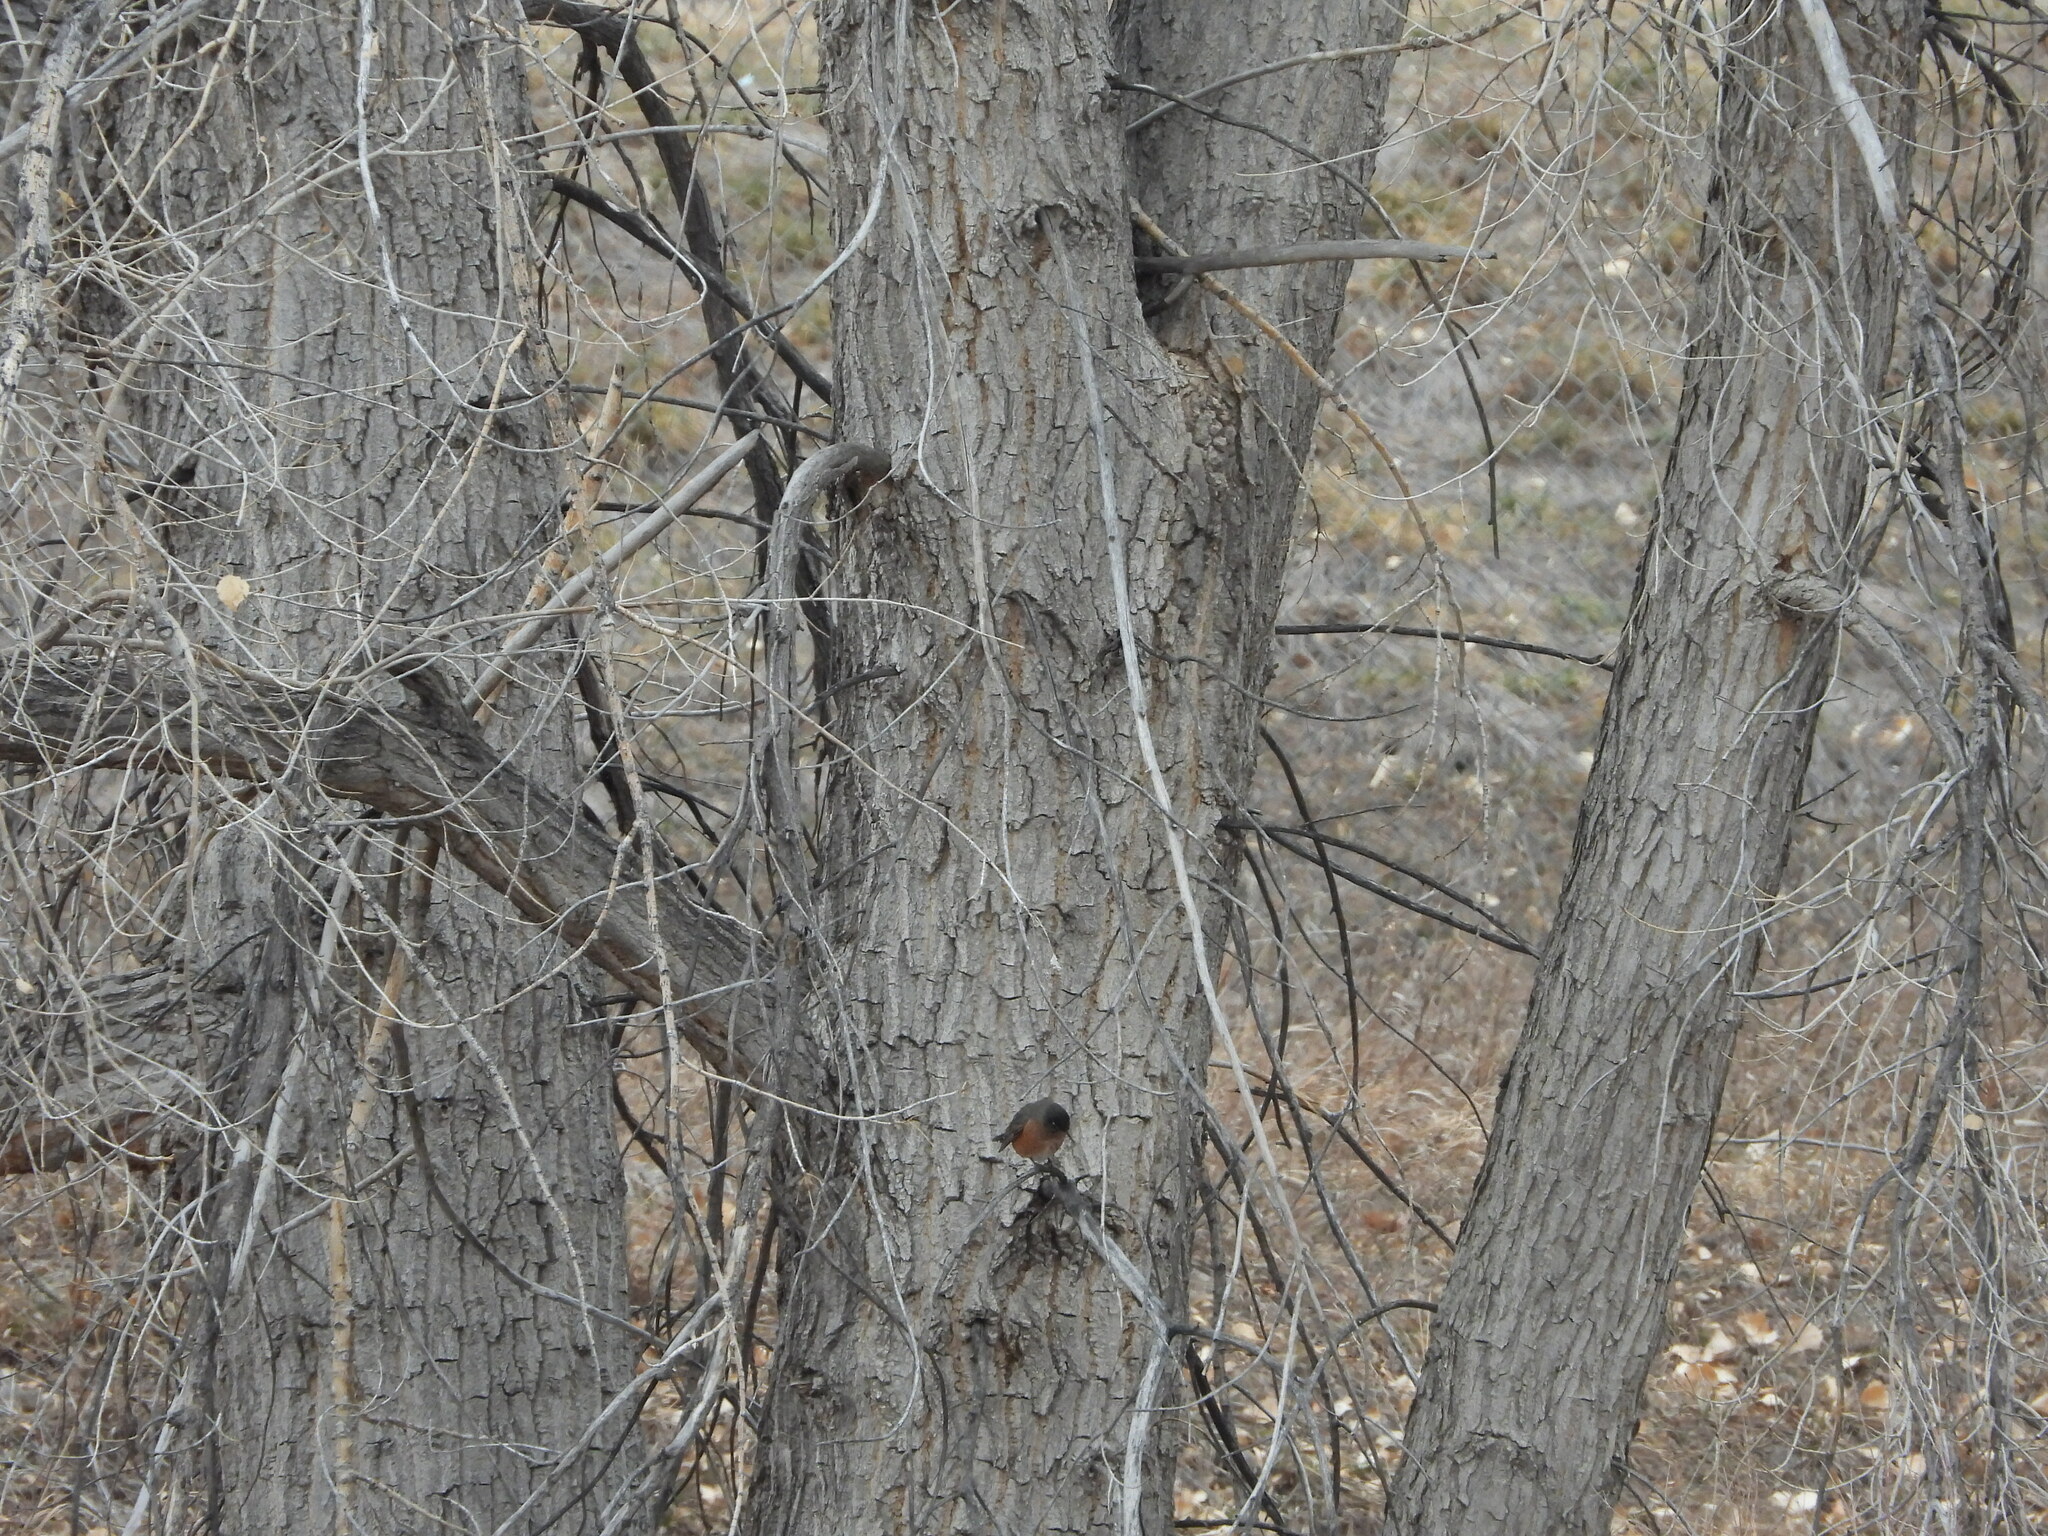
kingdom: Animalia
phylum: Chordata
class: Aves
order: Passeriformes
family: Turdidae
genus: Turdus
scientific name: Turdus migratorius
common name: American robin
